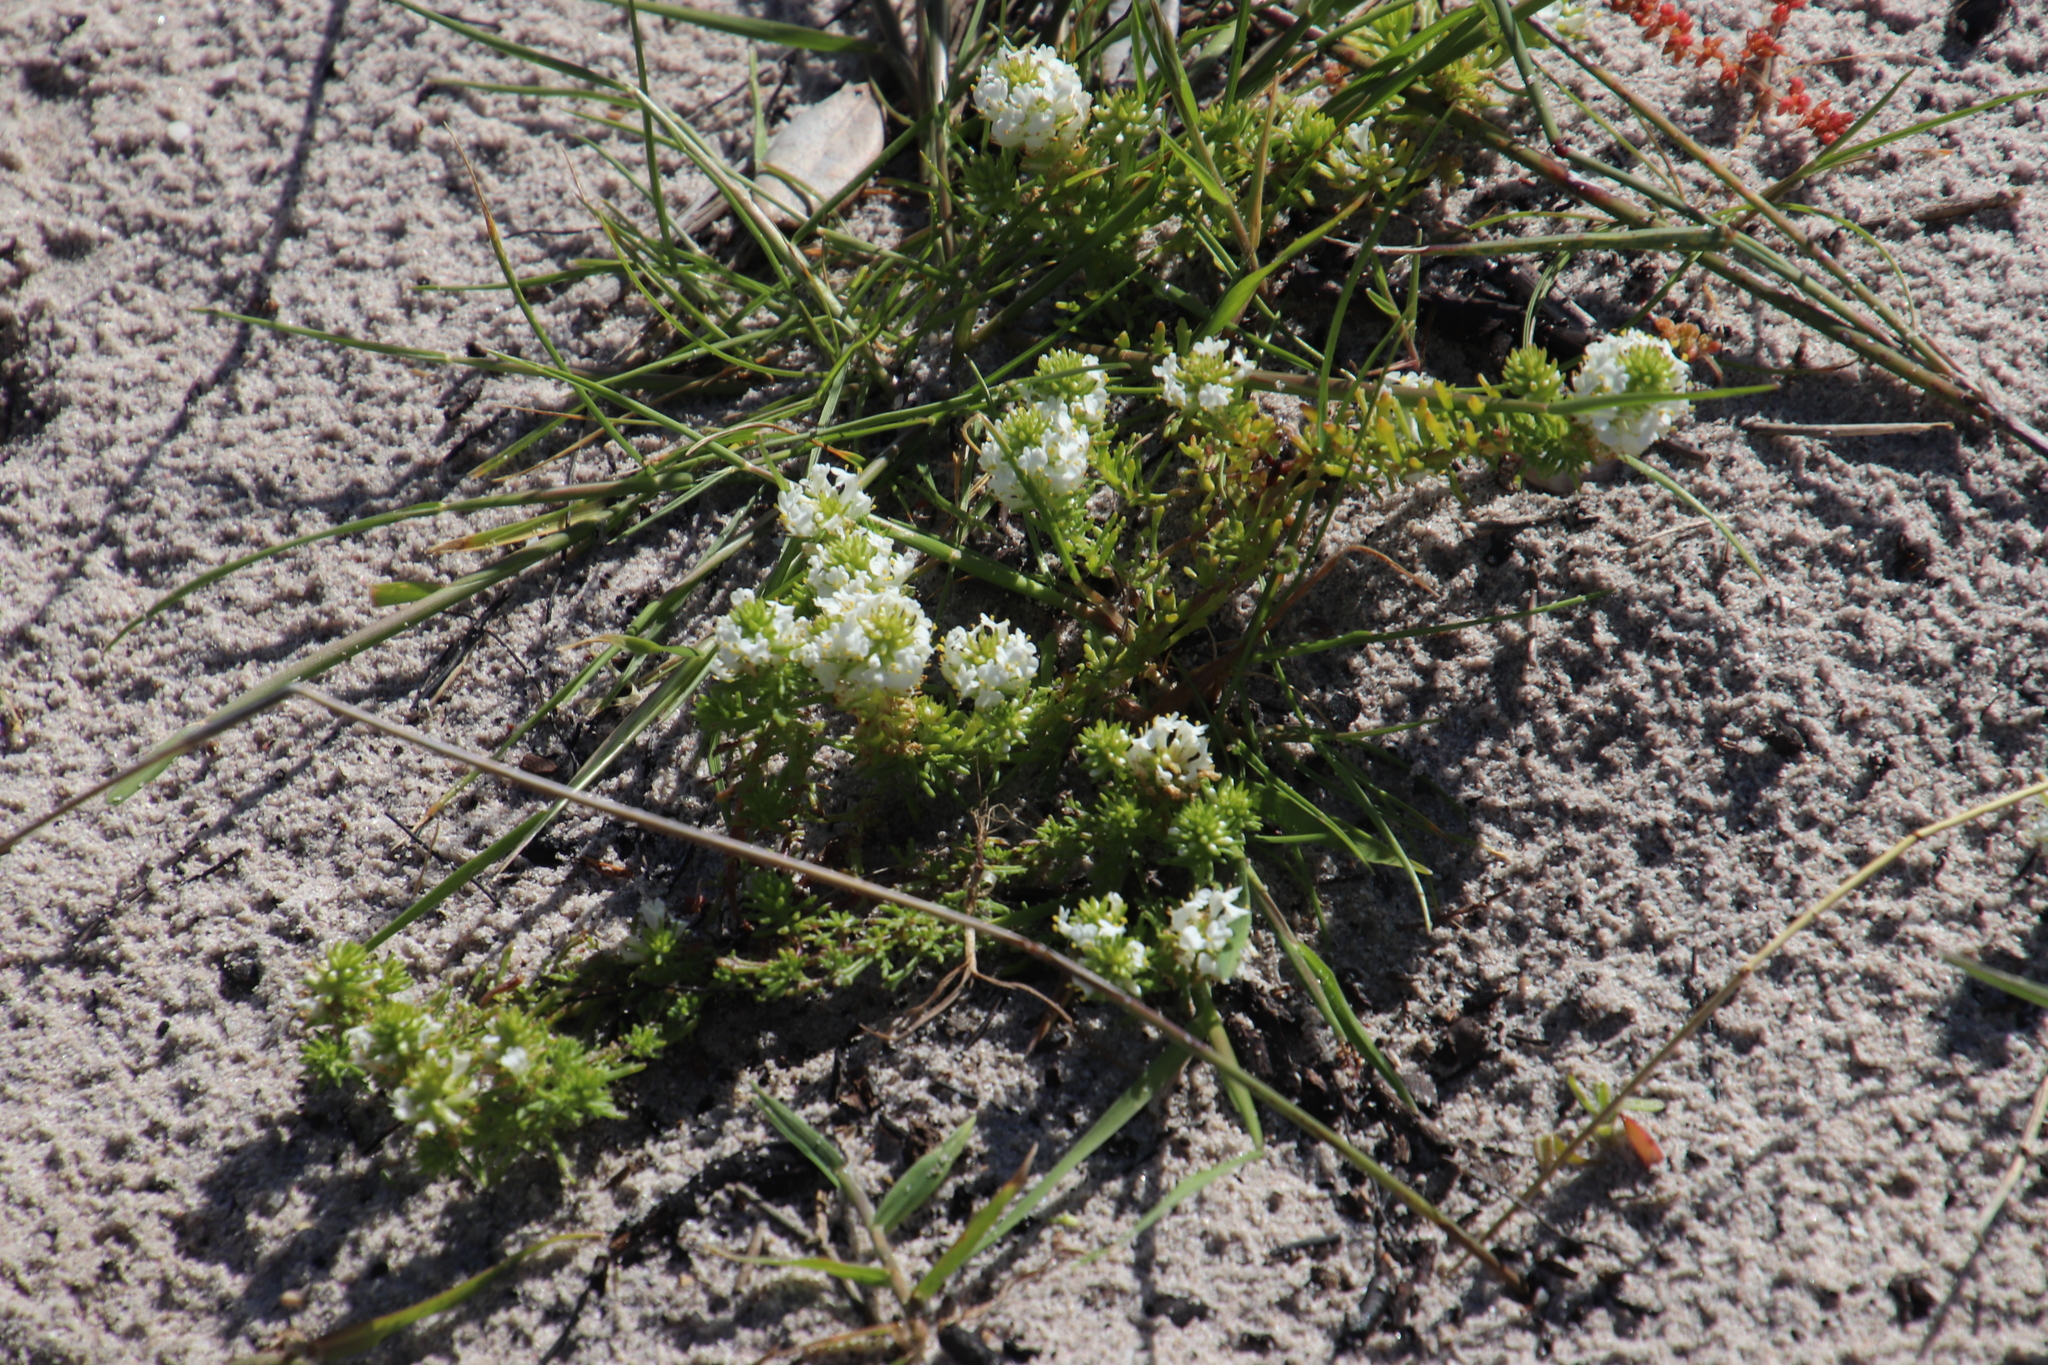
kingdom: Plantae
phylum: Tracheophyta
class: Magnoliopsida
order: Lamiales
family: Scrophulariaceae
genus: Dischisma
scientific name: Dischisma ciliatum
